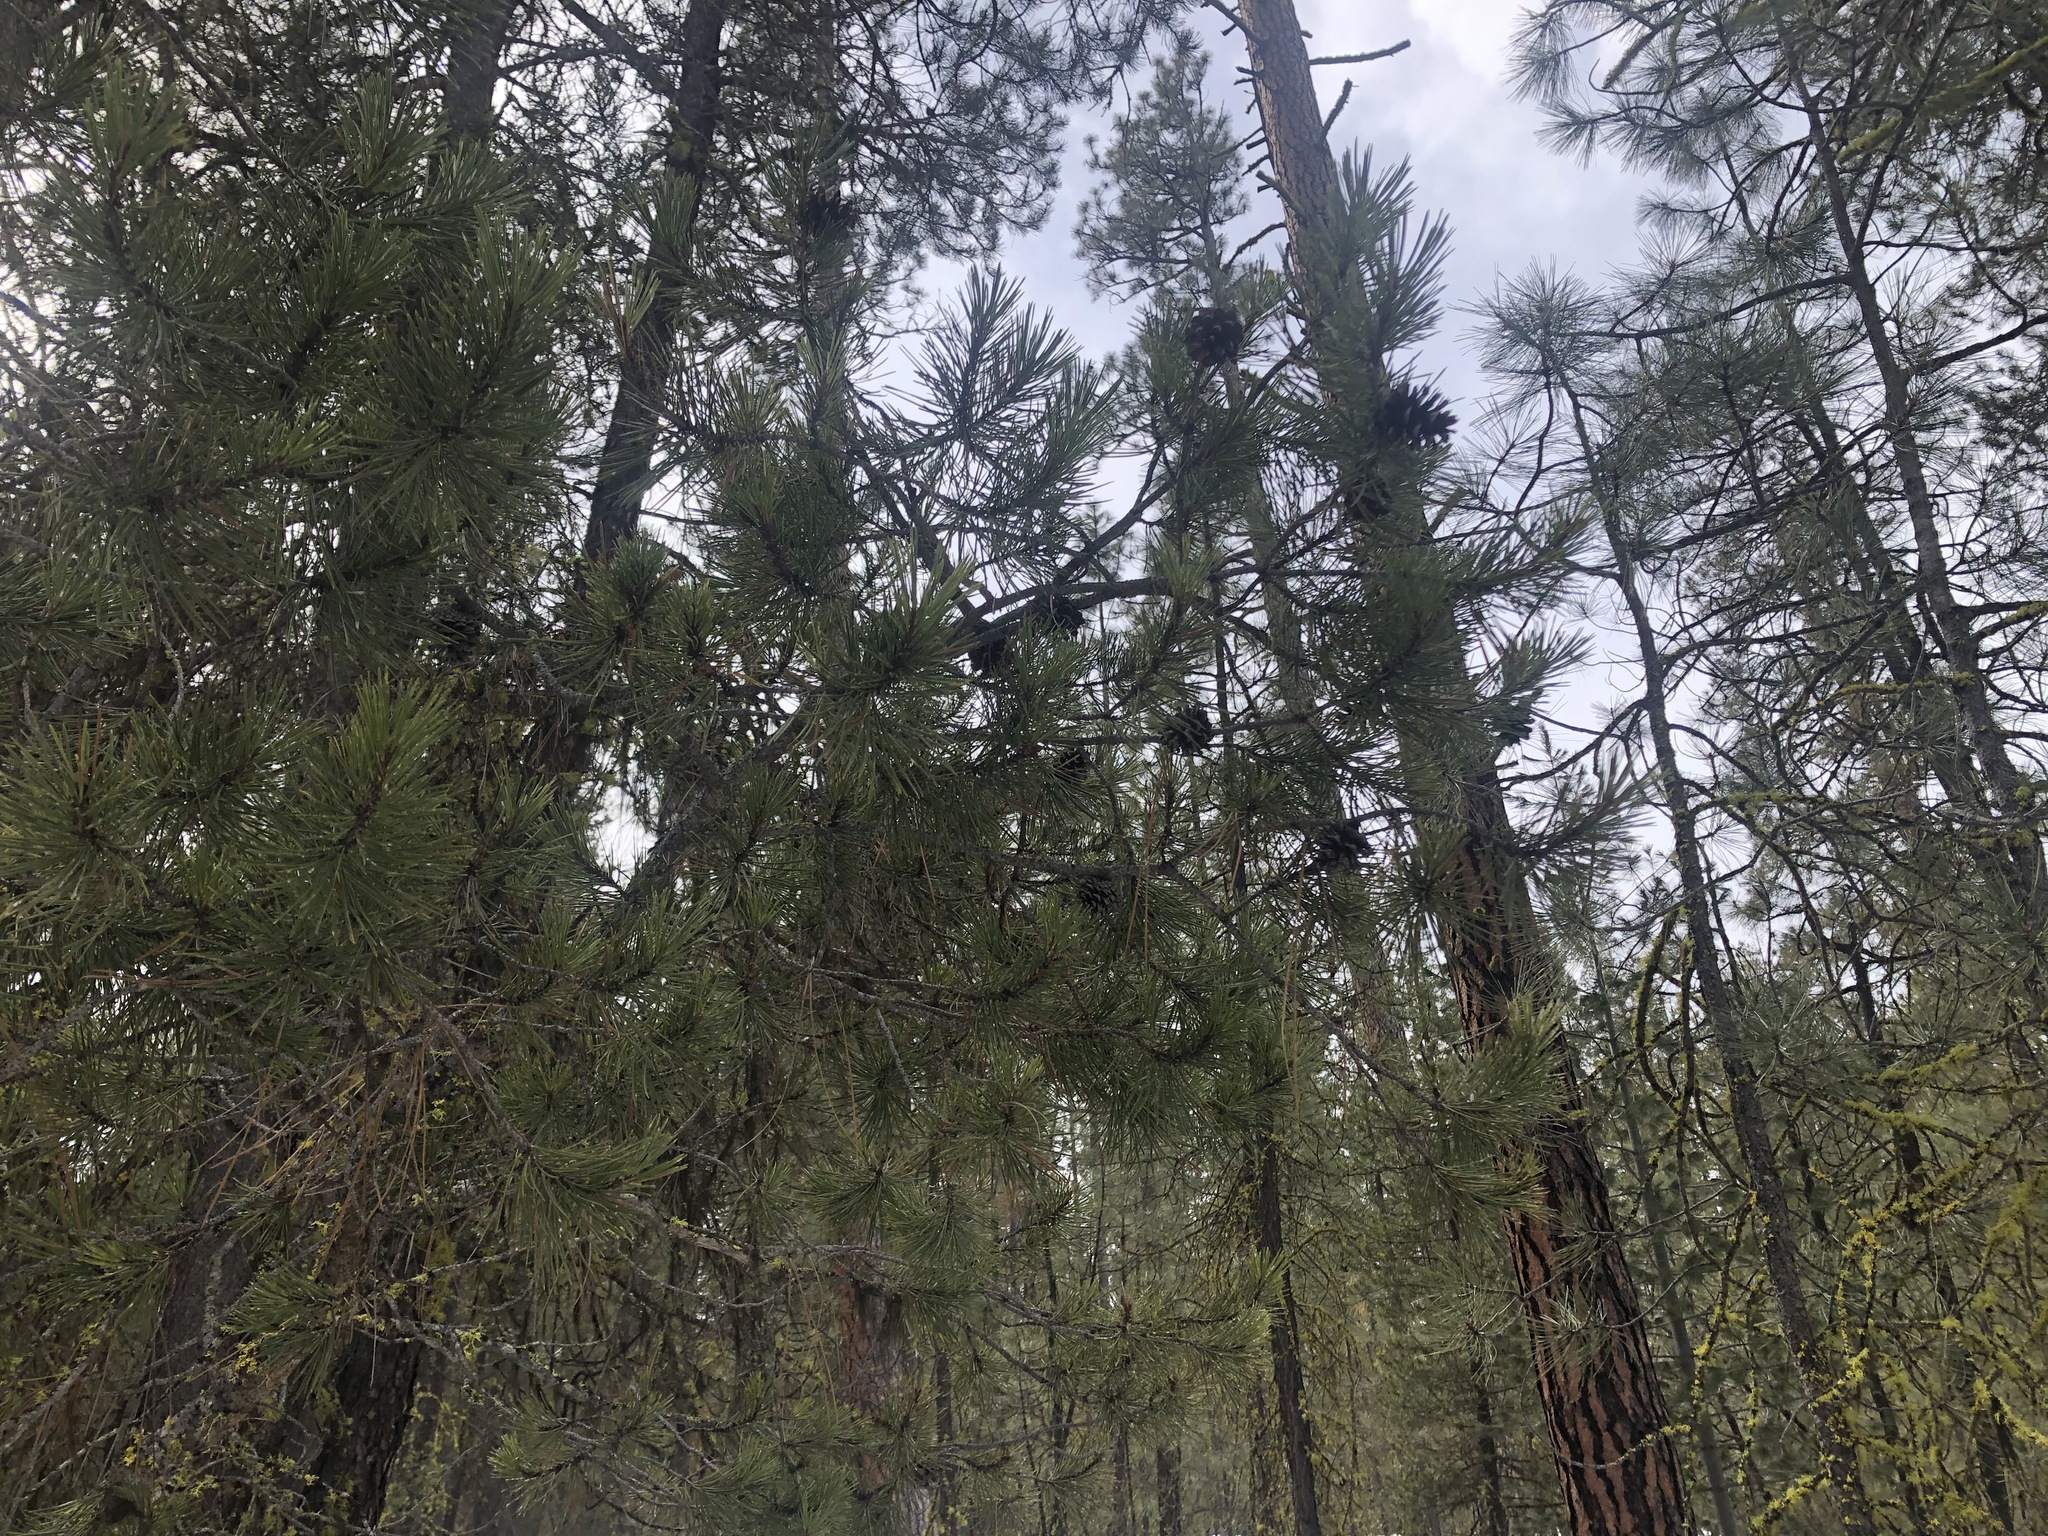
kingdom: Plantae
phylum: Tracheophyta
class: Pinopsida
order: Pinales
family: Pinaceae
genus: Pinus
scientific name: Pinus contorta
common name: Lodgepole pine
